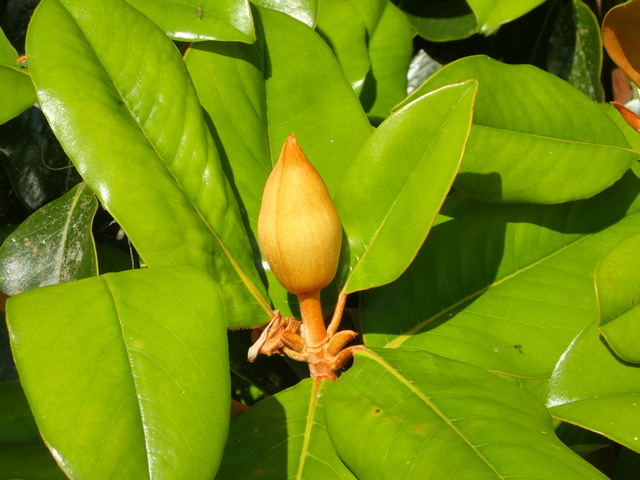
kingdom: Plantae
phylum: Tracheophyta
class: Magnoliopsida
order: Magnoliales
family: Magnoliaceae
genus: Magnolia
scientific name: Magnolia grandiflora
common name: Southern magnolia
